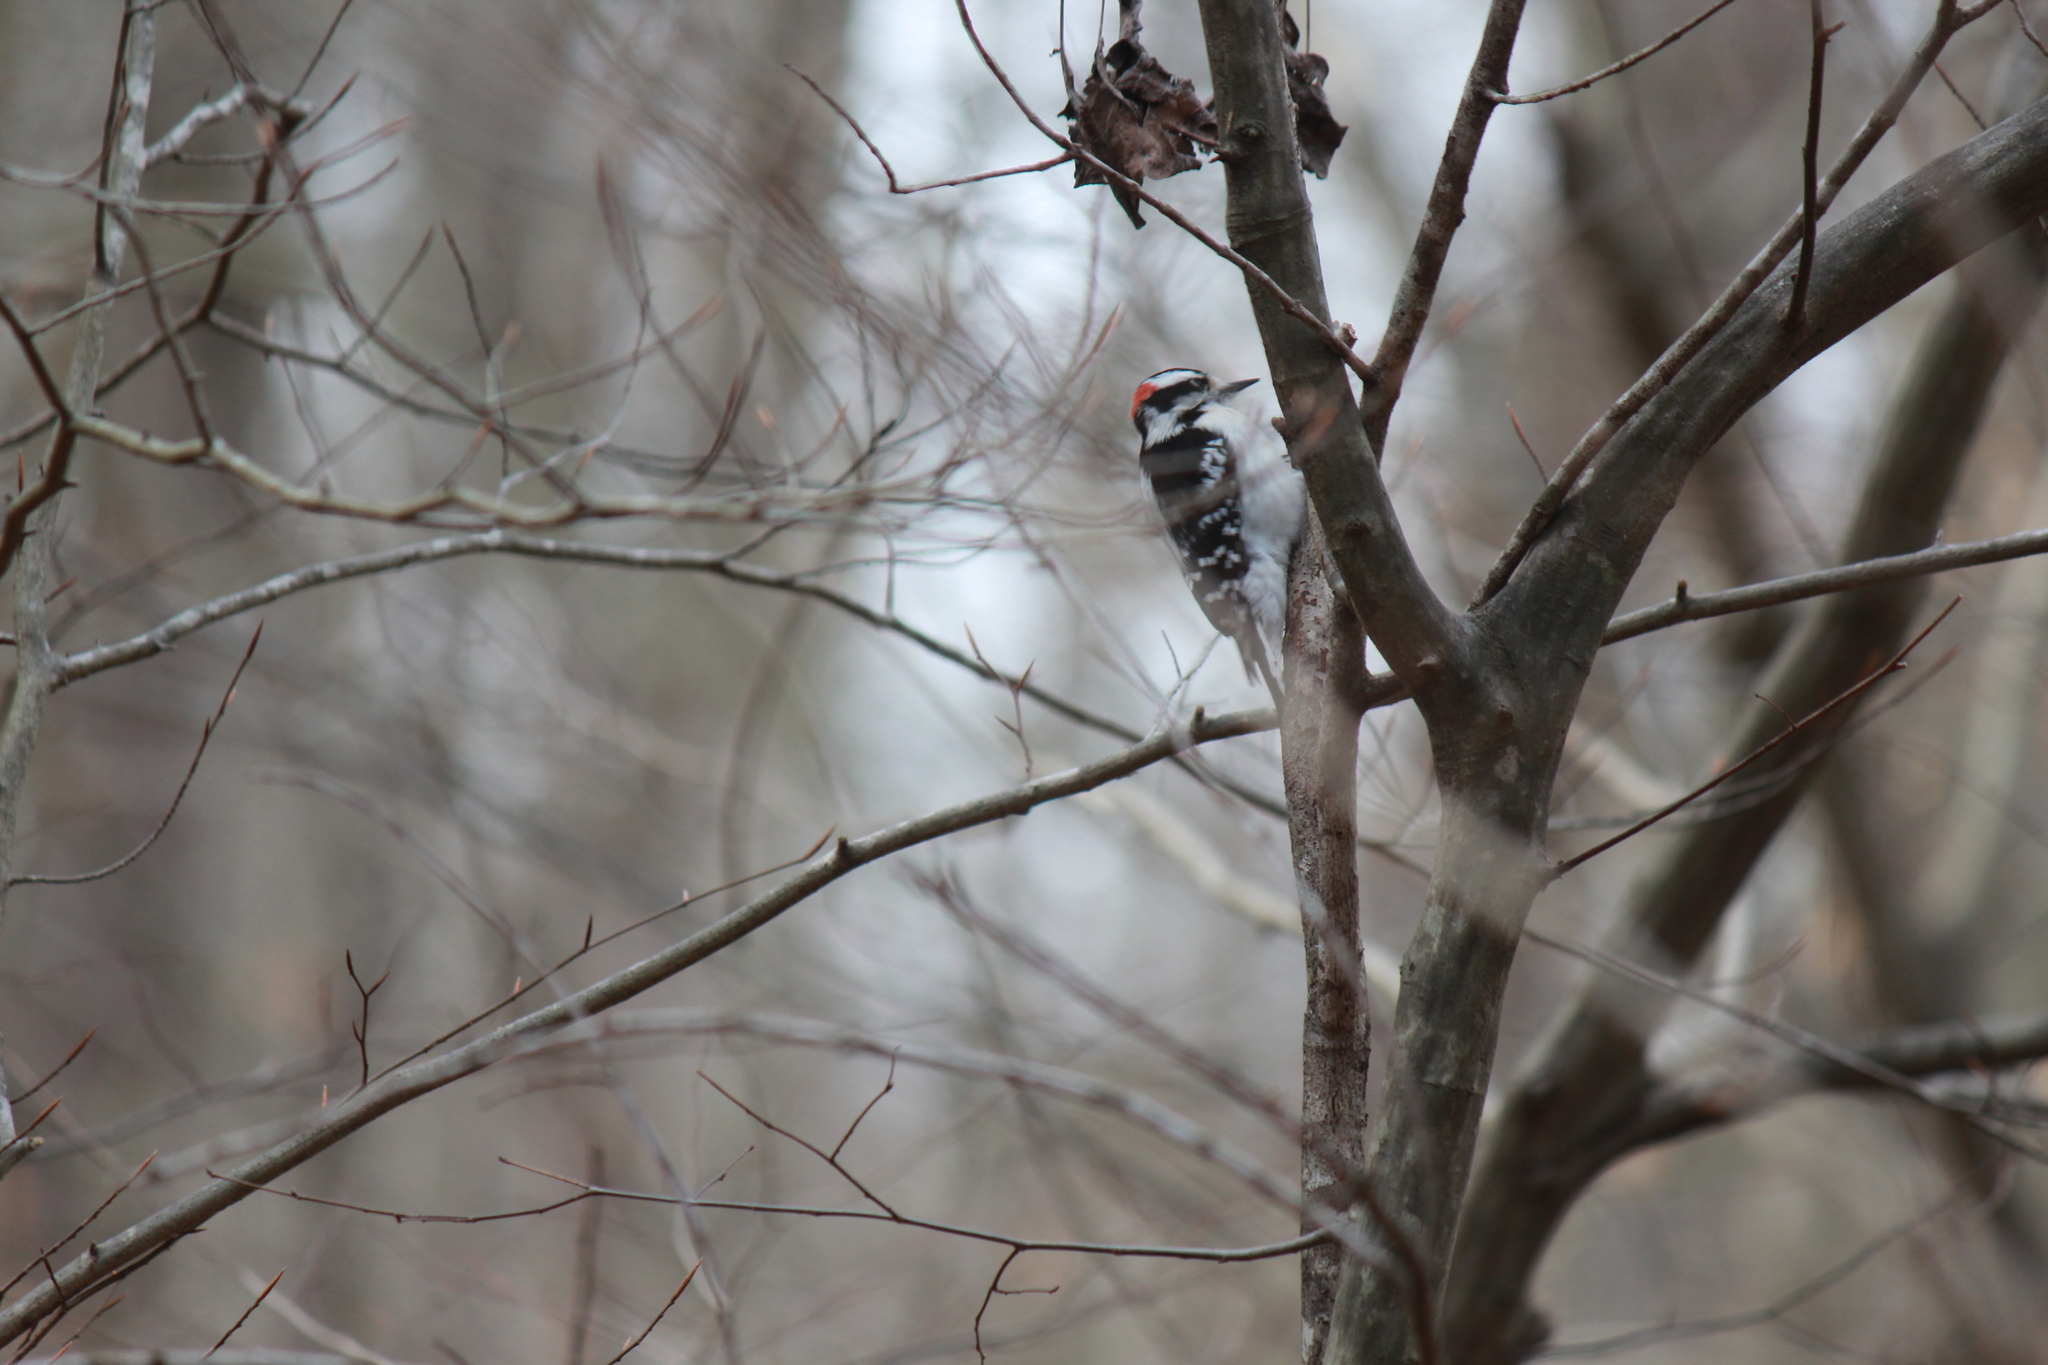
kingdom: Animalia
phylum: Chordata
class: Aves
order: Piciformes
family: Picidae
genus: Dryobates
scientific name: Dryobates pubescens
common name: Downy woodpecker
